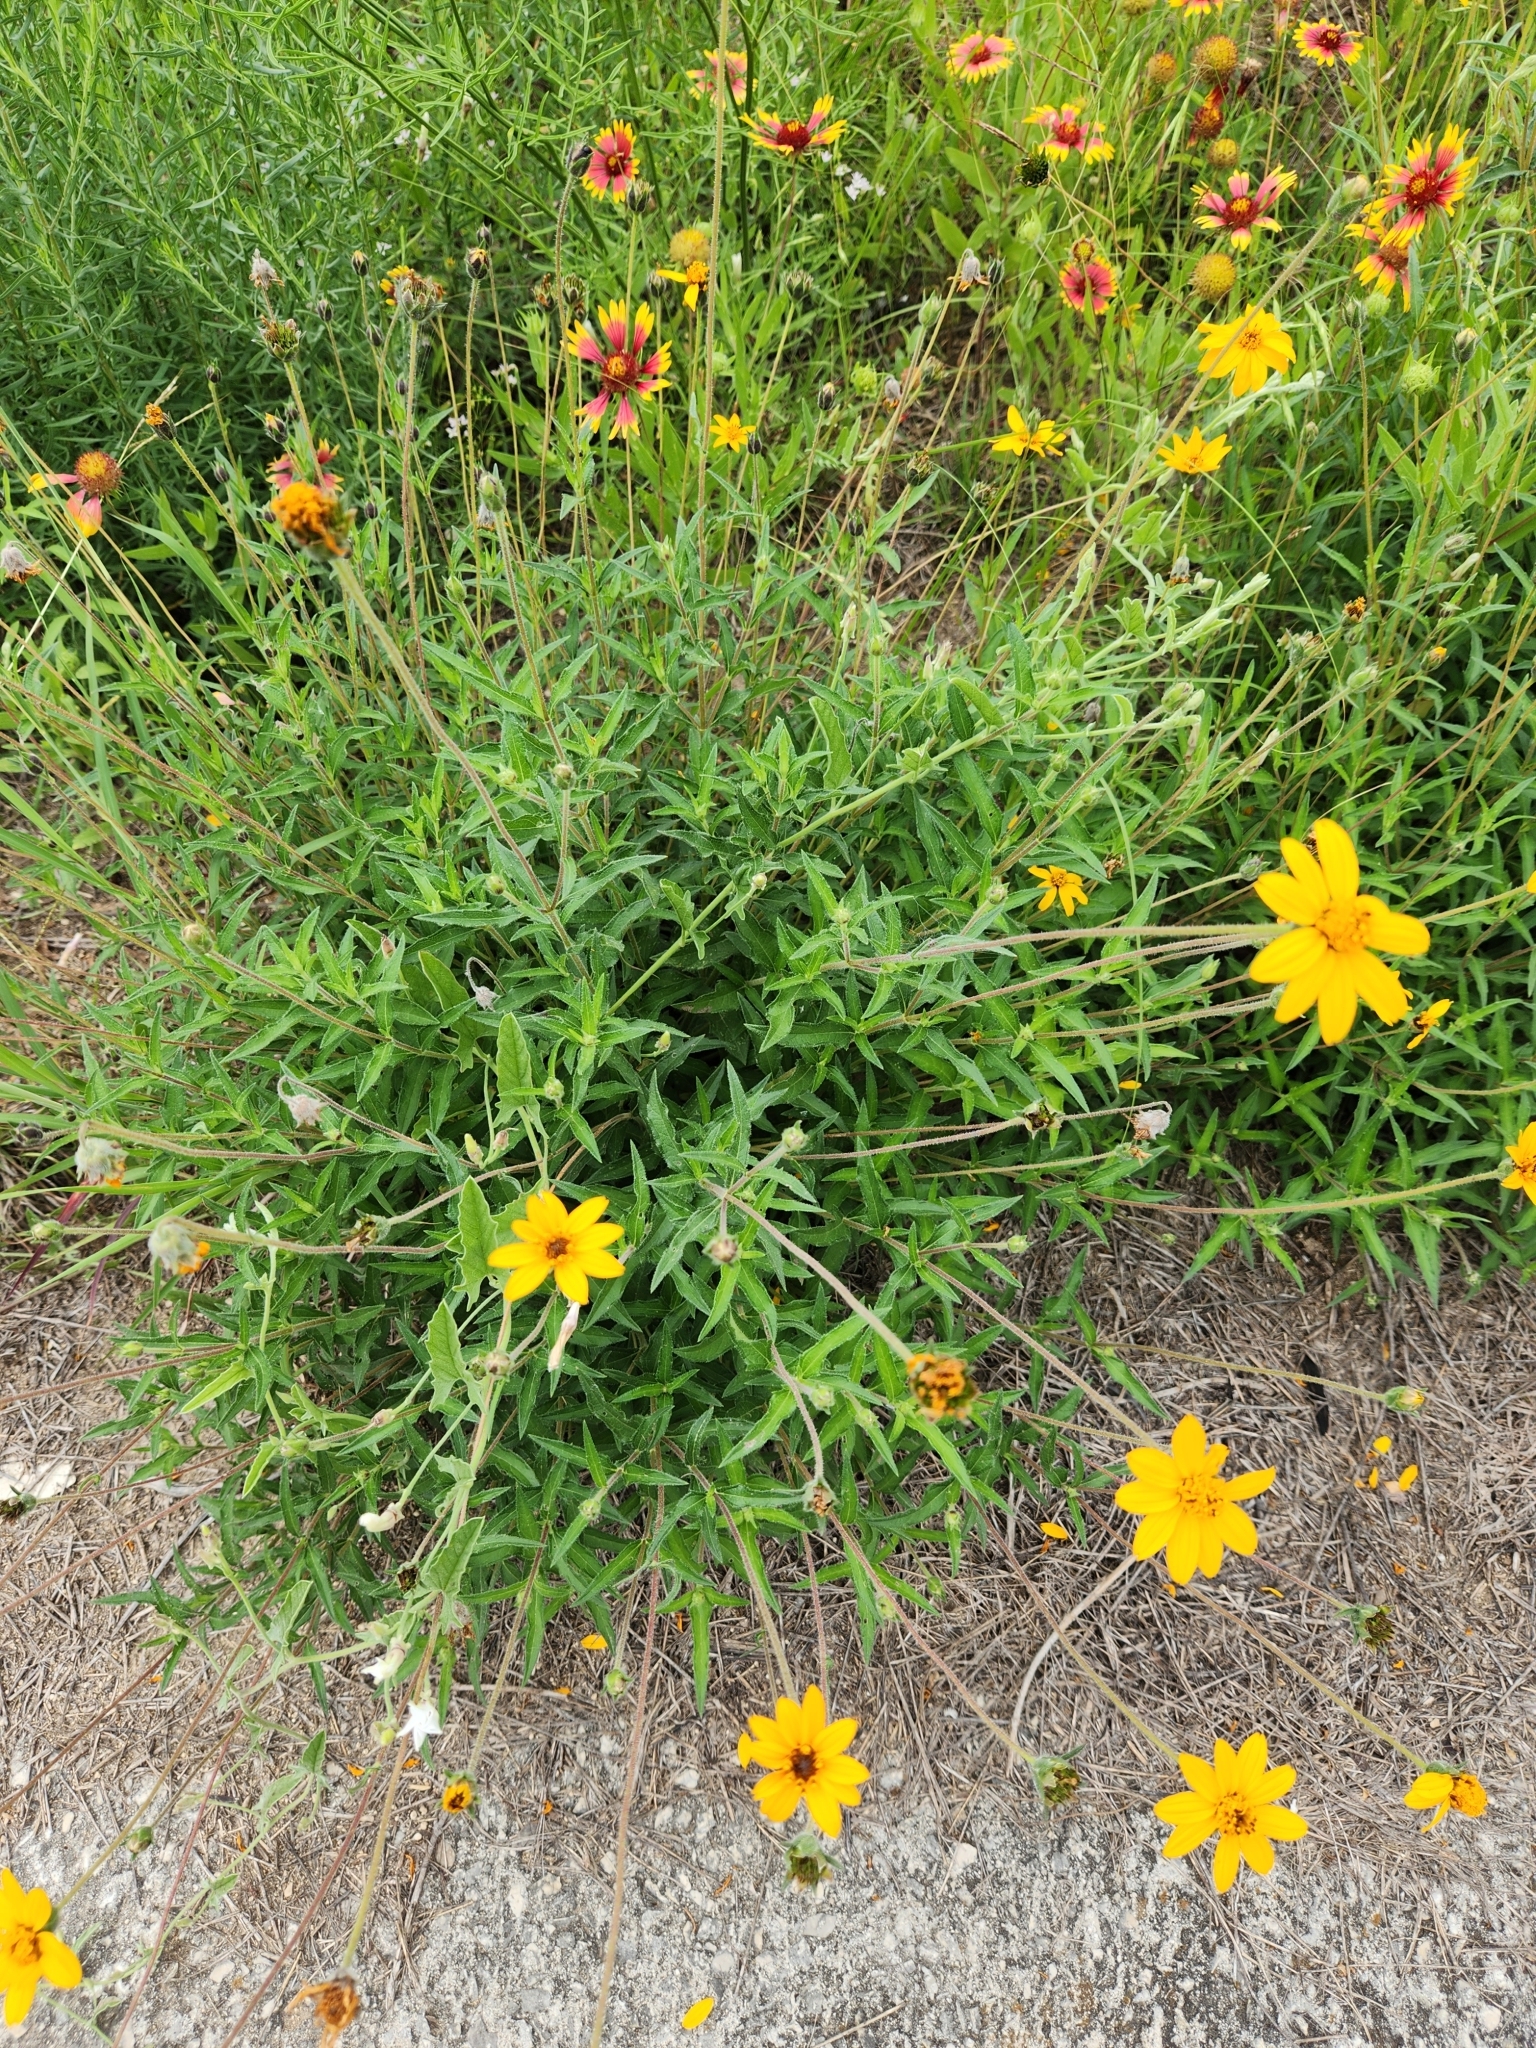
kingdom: Plantae
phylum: Tracheophyta
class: Magnoliopsida
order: Asterales
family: Asteraceae
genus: Wedelia
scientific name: Wedelia acapulcensis
